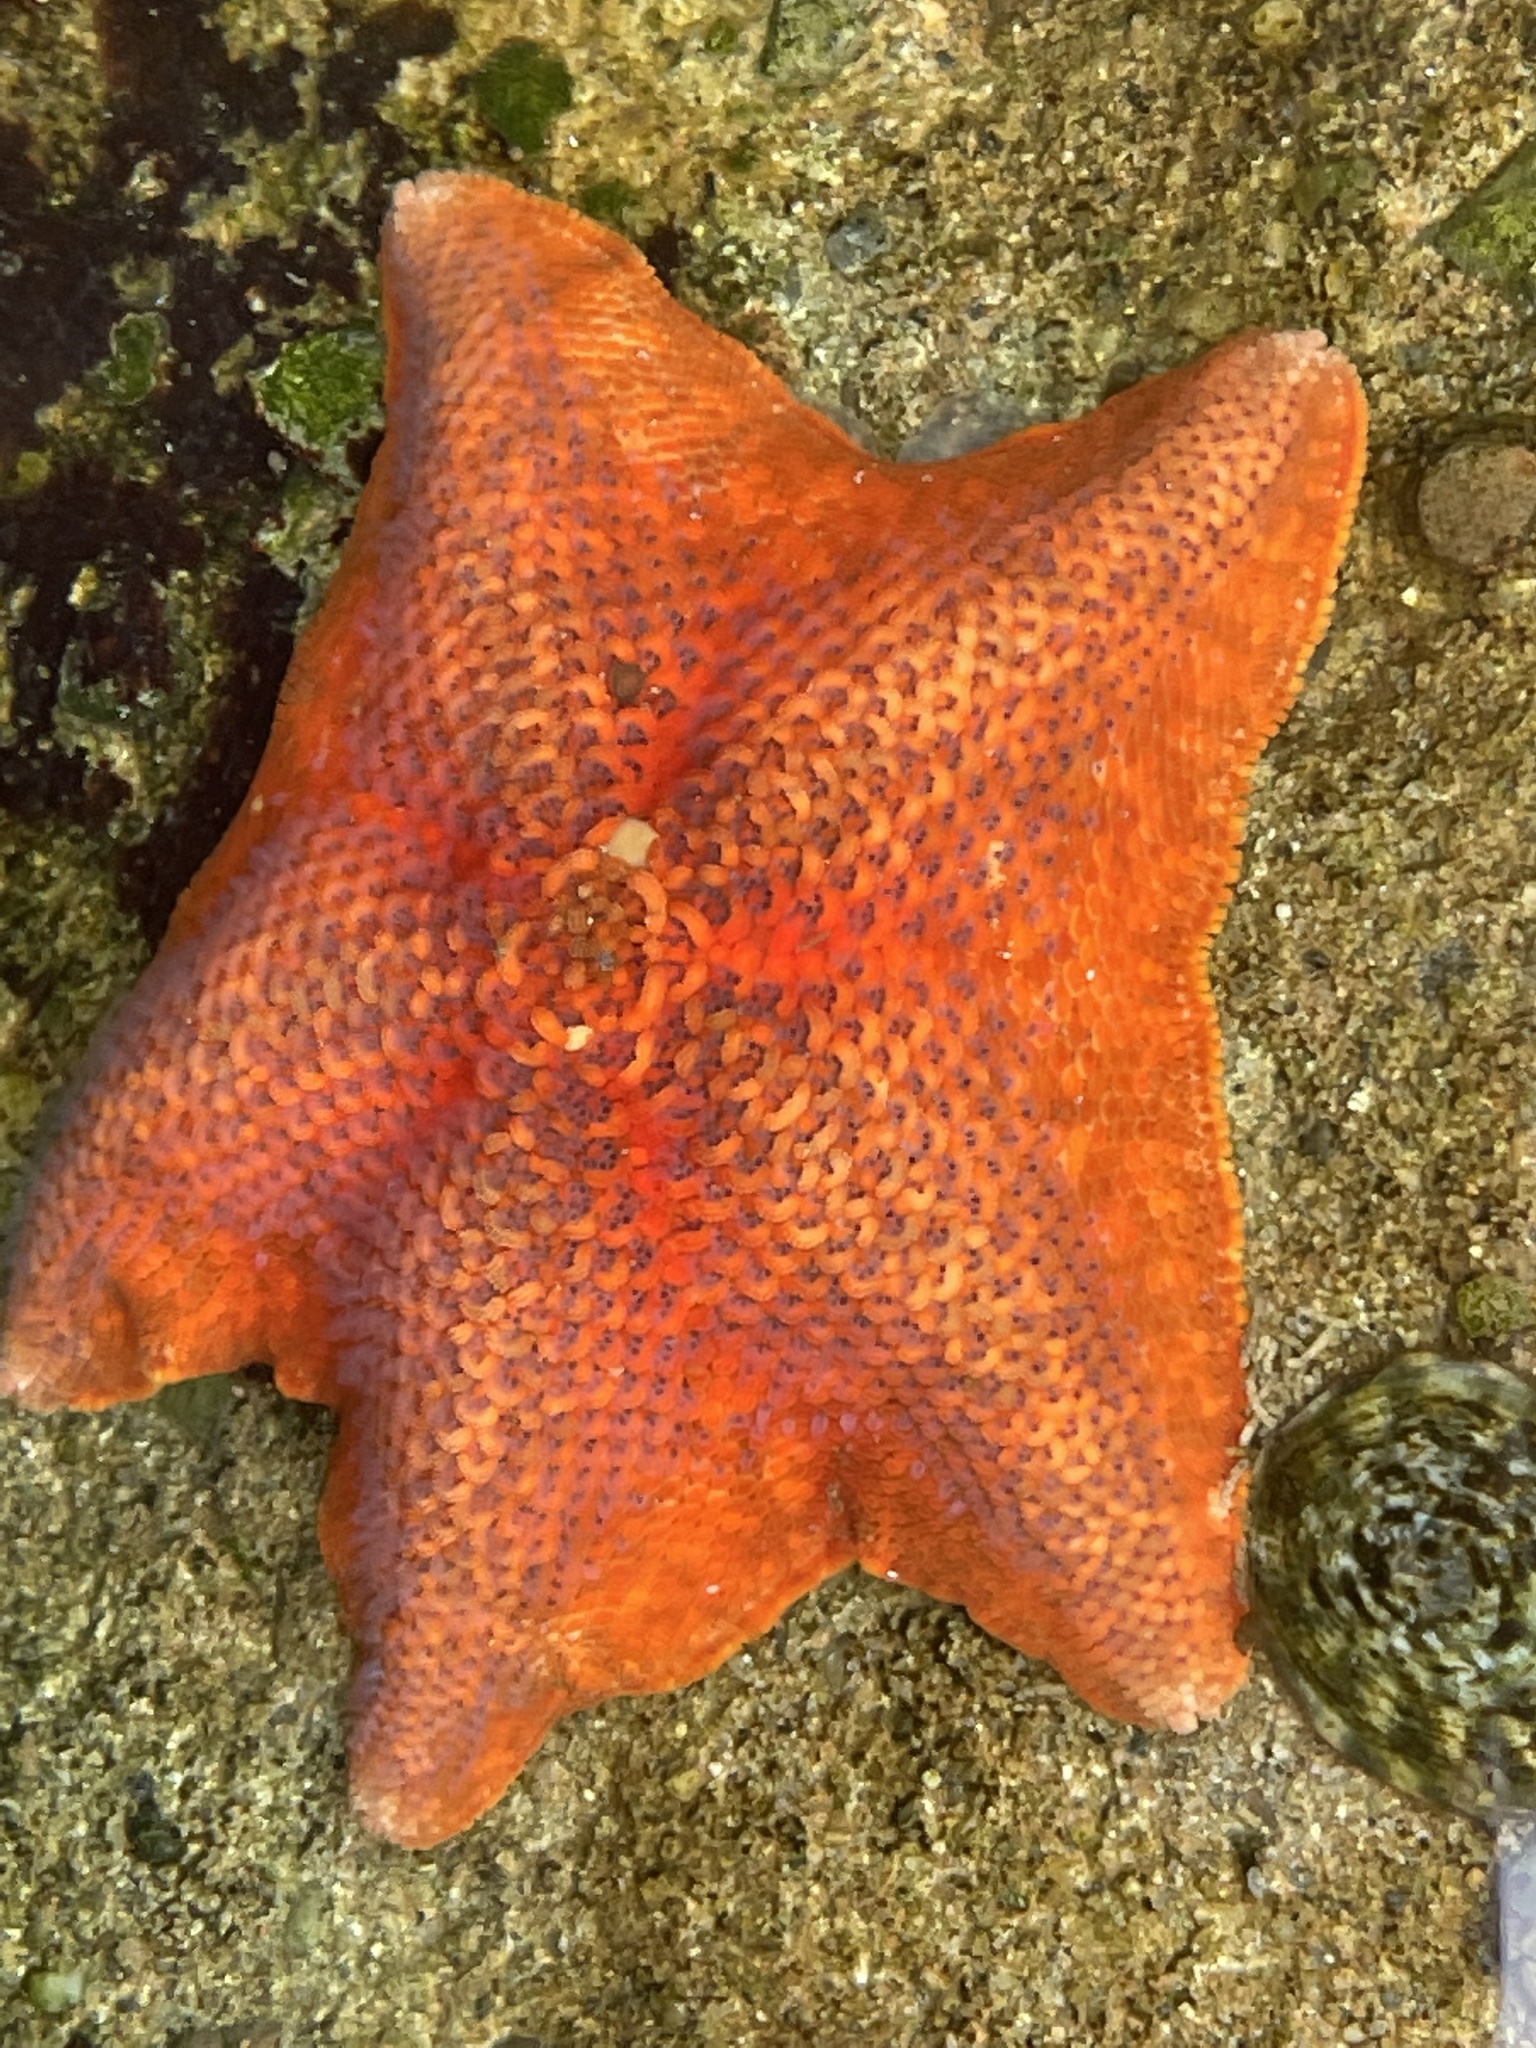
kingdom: Animalia
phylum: Echinodermata
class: Asteroidea
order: Valvatida
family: Asterinidae
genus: Patiria
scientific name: Patiria miniata
